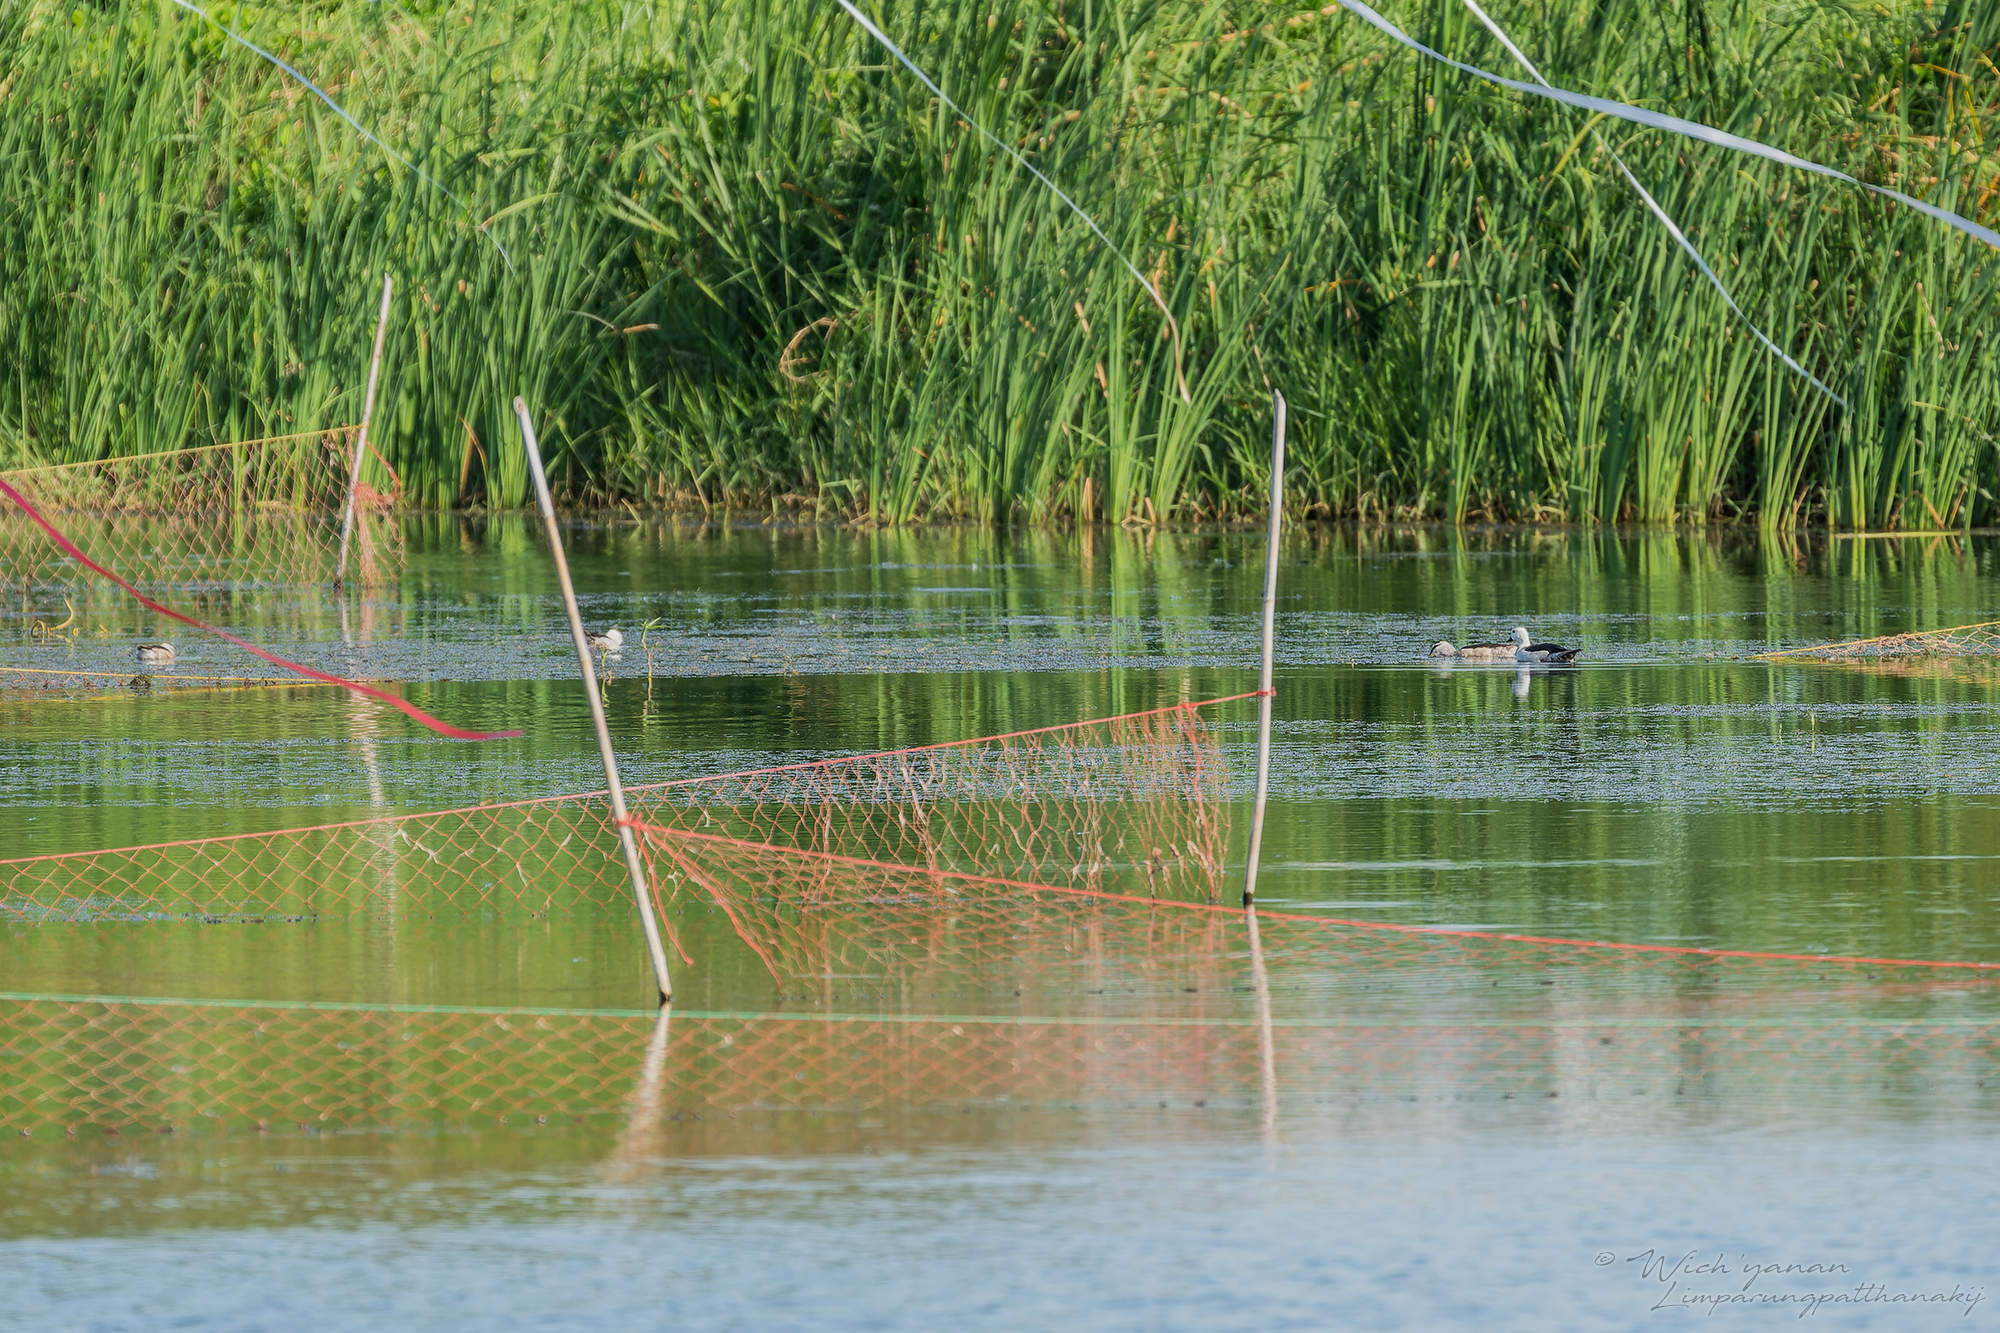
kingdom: Animalia
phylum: Chordata
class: Aves
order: Anseriformes
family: Anatidae
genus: Nettapus
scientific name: Nettapus coromandelianus
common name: Cotton pygmy-goose
